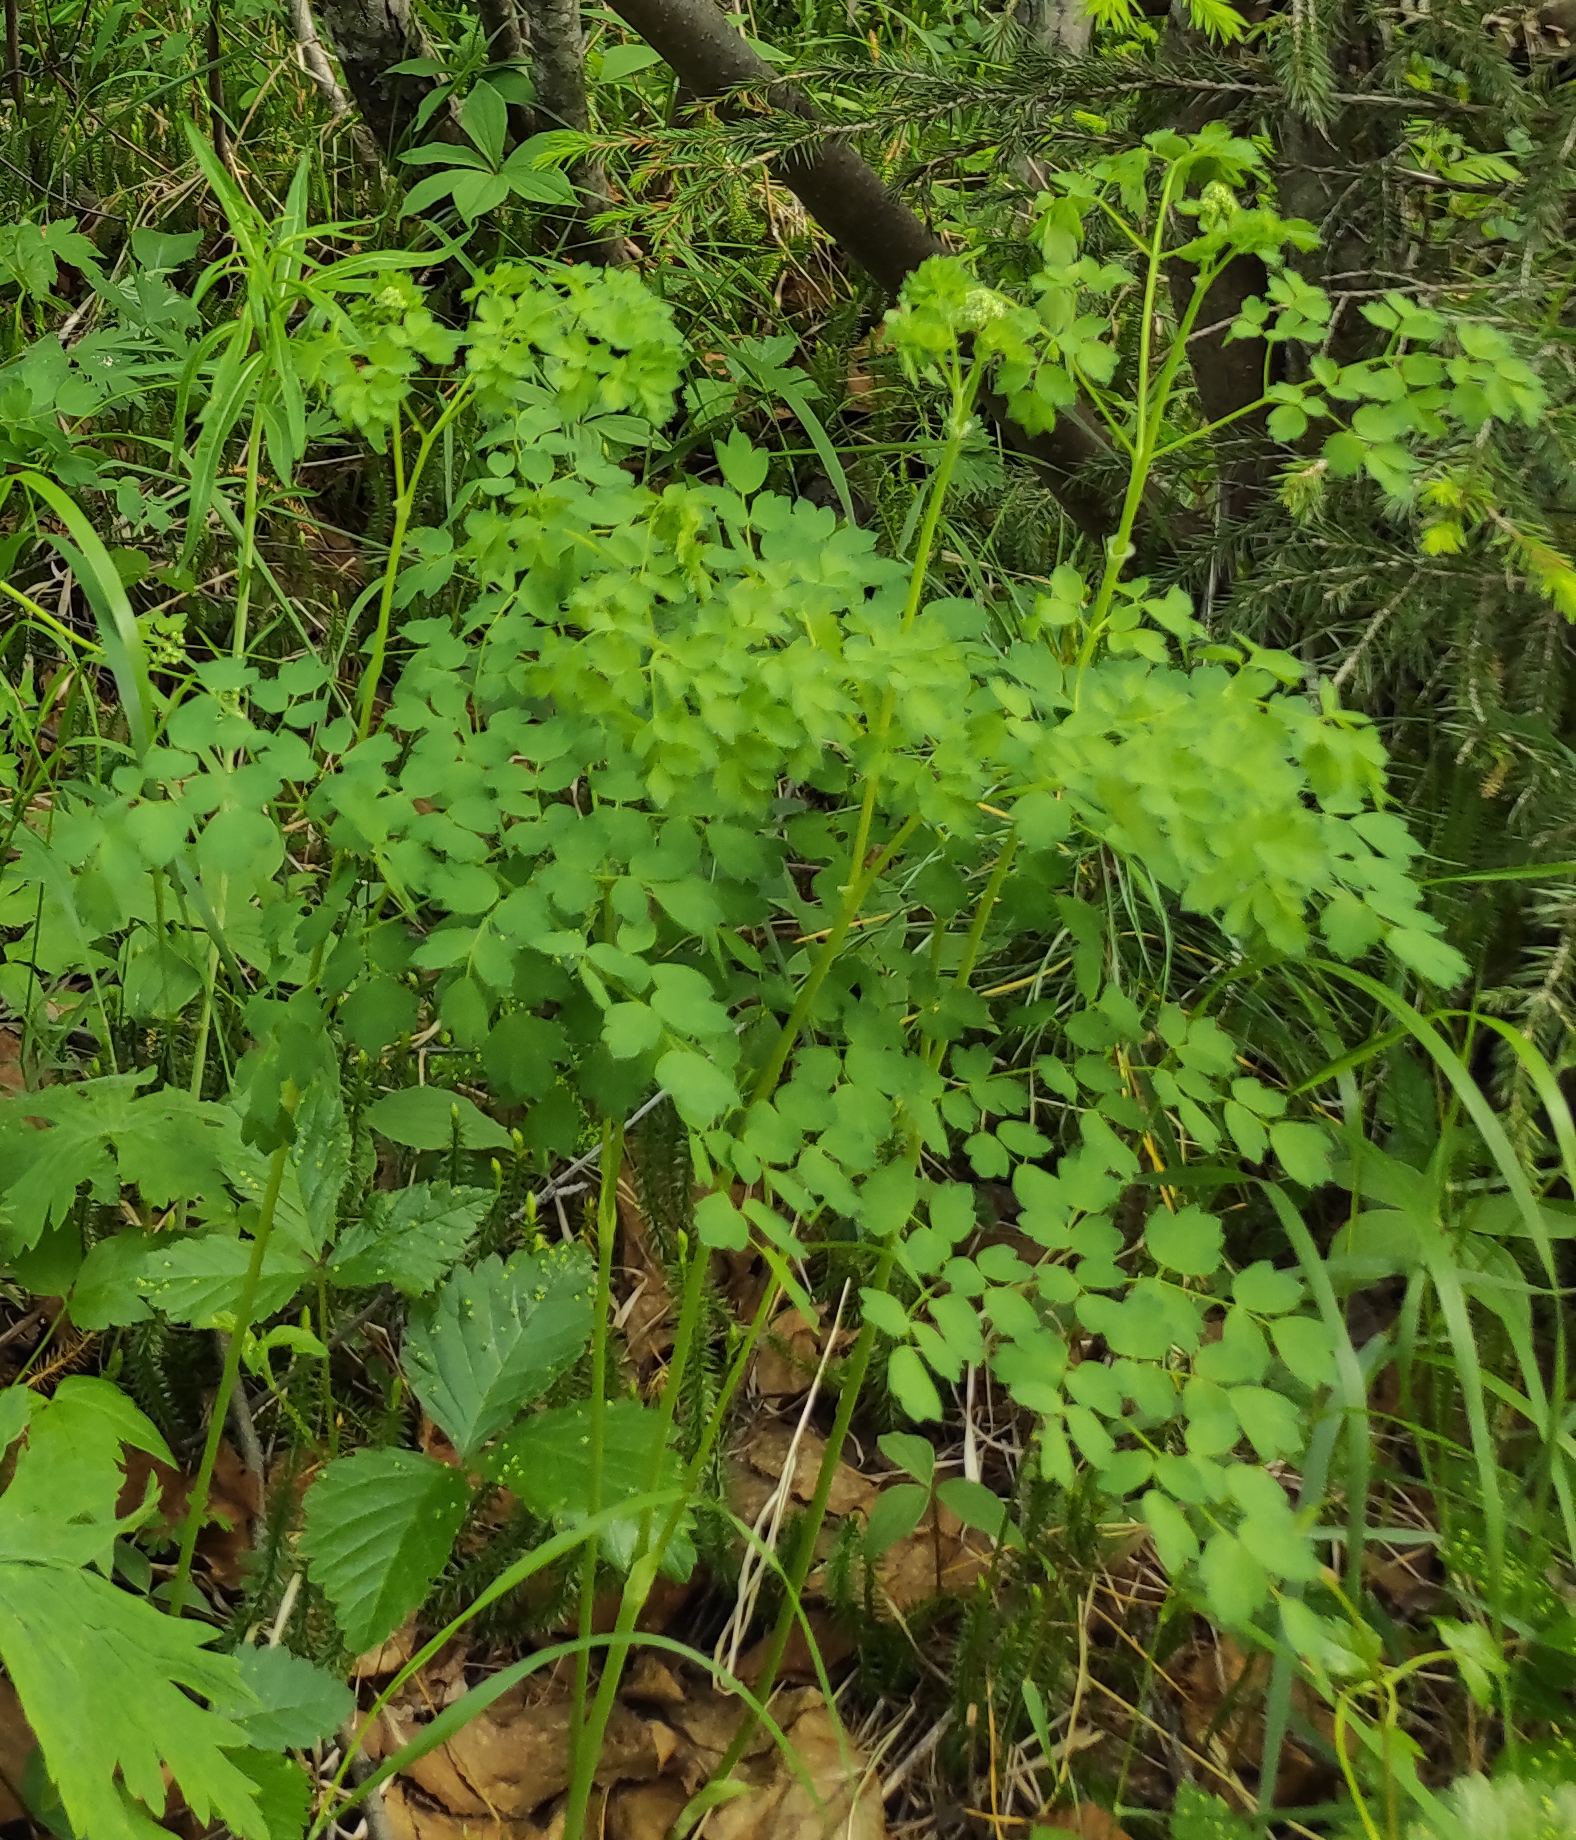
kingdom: Plantae
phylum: Tracheophyta
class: Magnoliopsida
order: Ranunculales
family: Ranunculaceae
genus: Thalictrum
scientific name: Thalictrum minus
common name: Lesser meadow-rue
